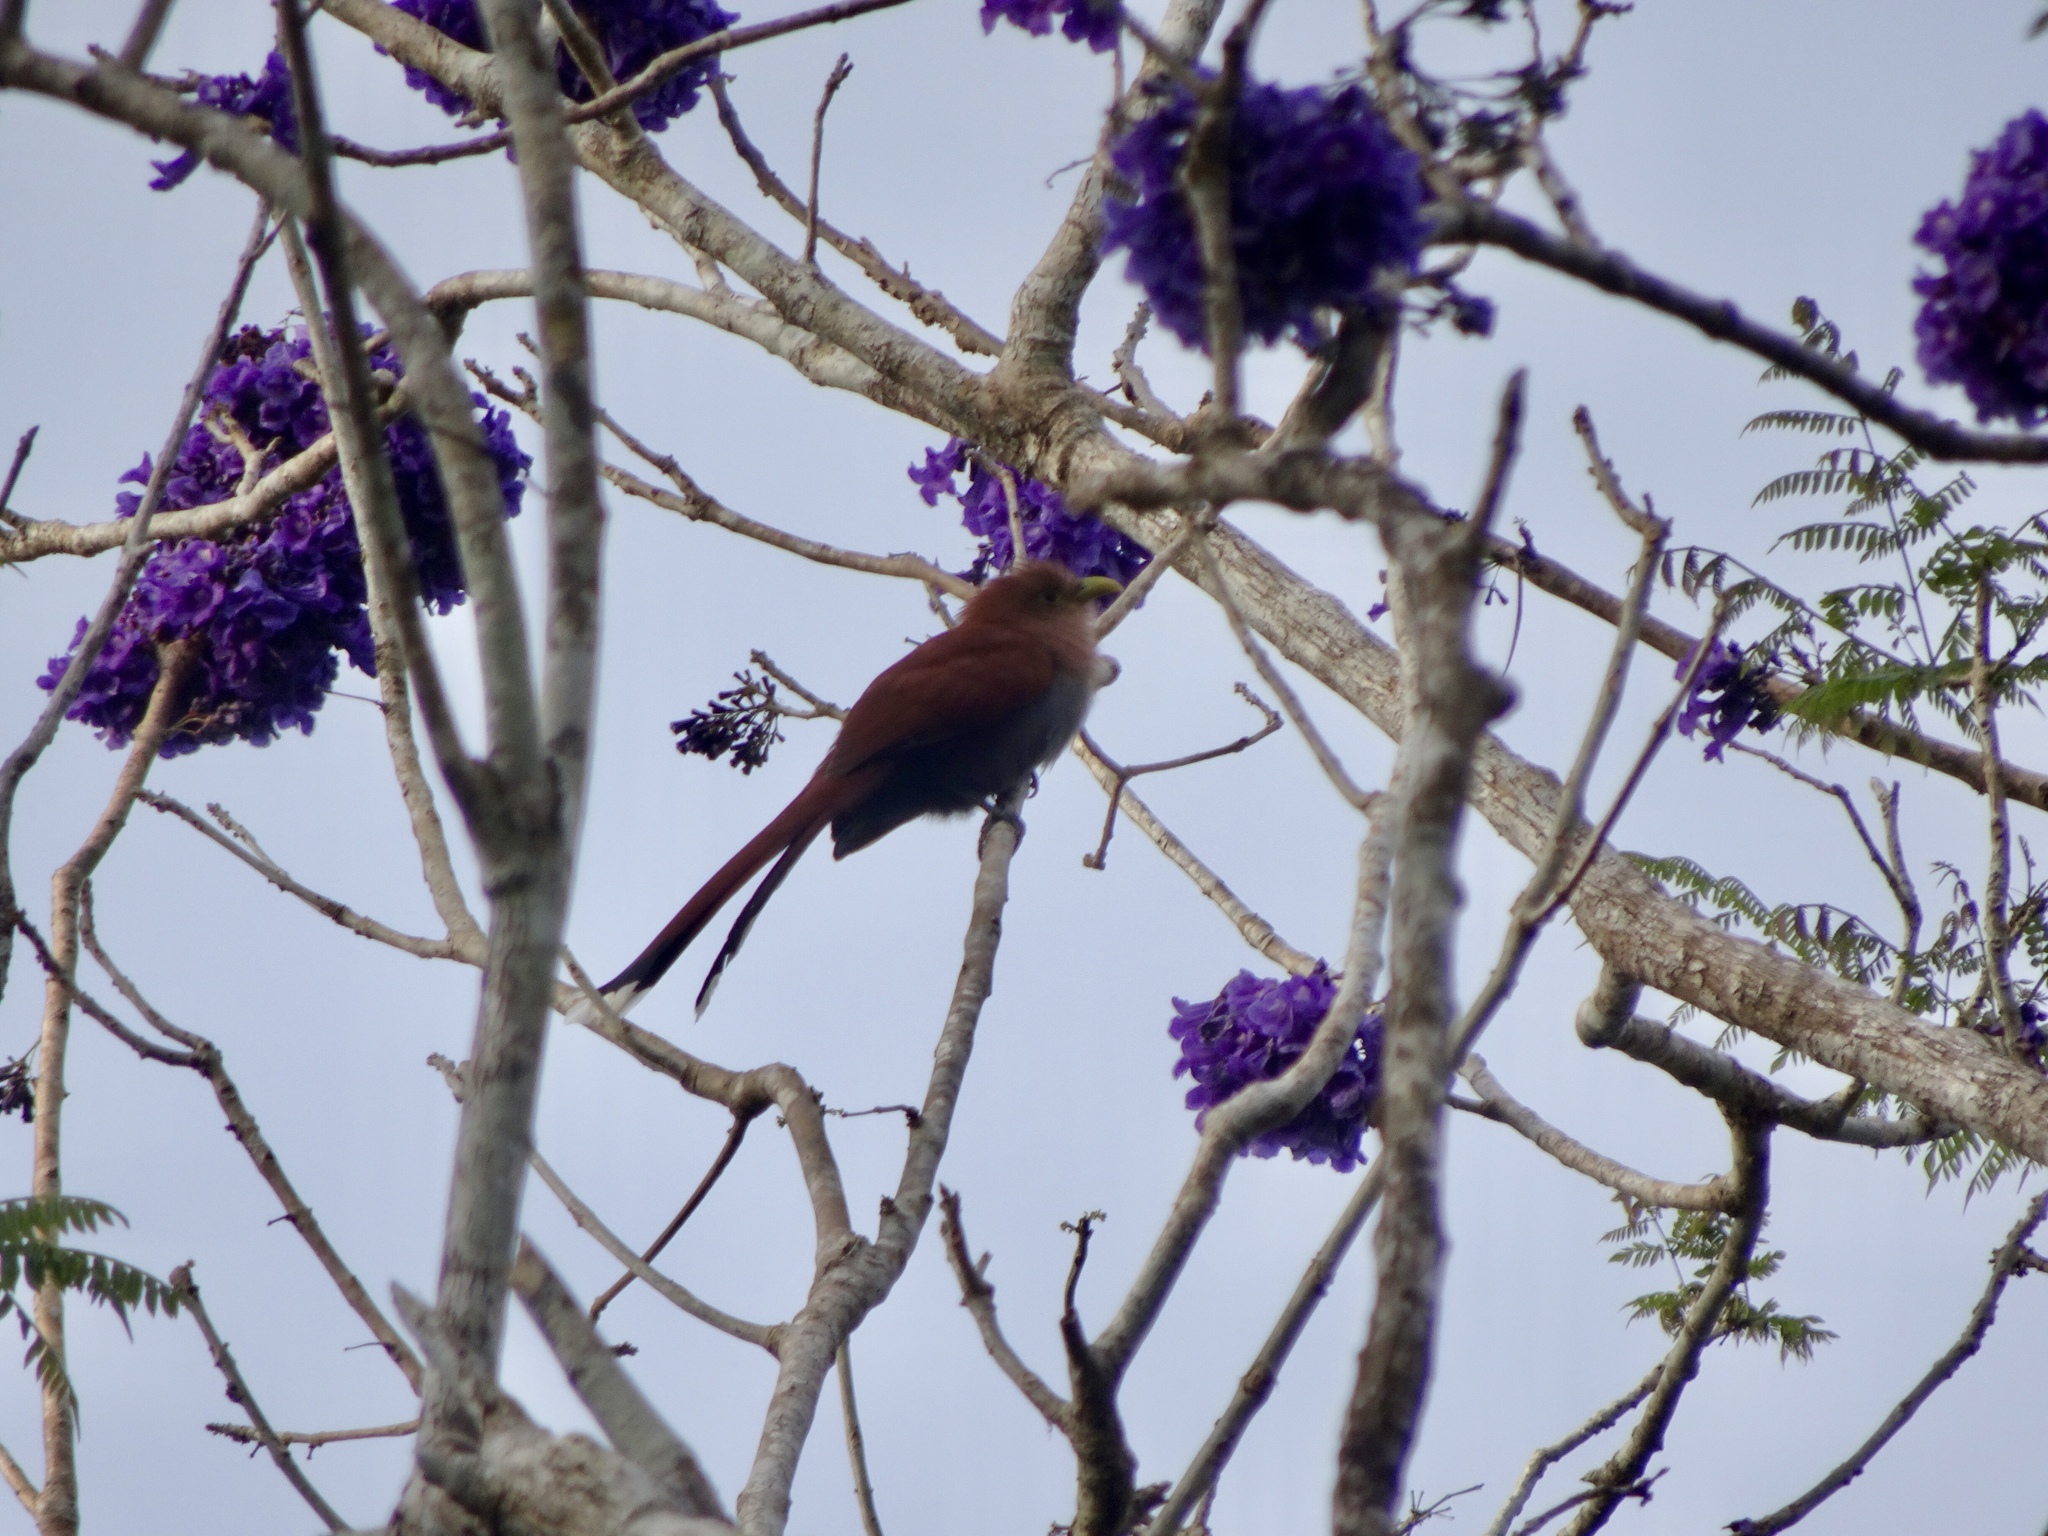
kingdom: Animalia
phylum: Chordata
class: Aves
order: Cuculiformes
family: Cuculidae
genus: Piaya
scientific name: Piaya cayana
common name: Squirrel cuckoo
